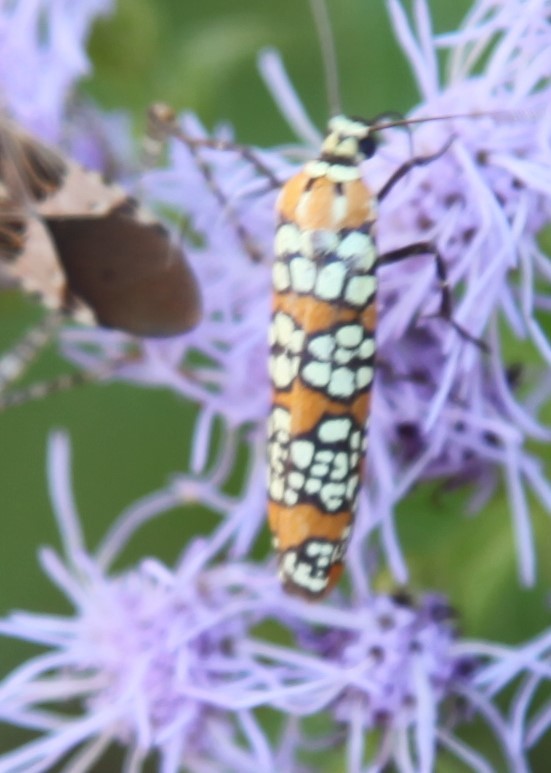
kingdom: Animalia
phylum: Arthropoda
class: Insecta
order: Lepidoptera
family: Attevidae
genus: Atteva
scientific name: Atteva punctella
